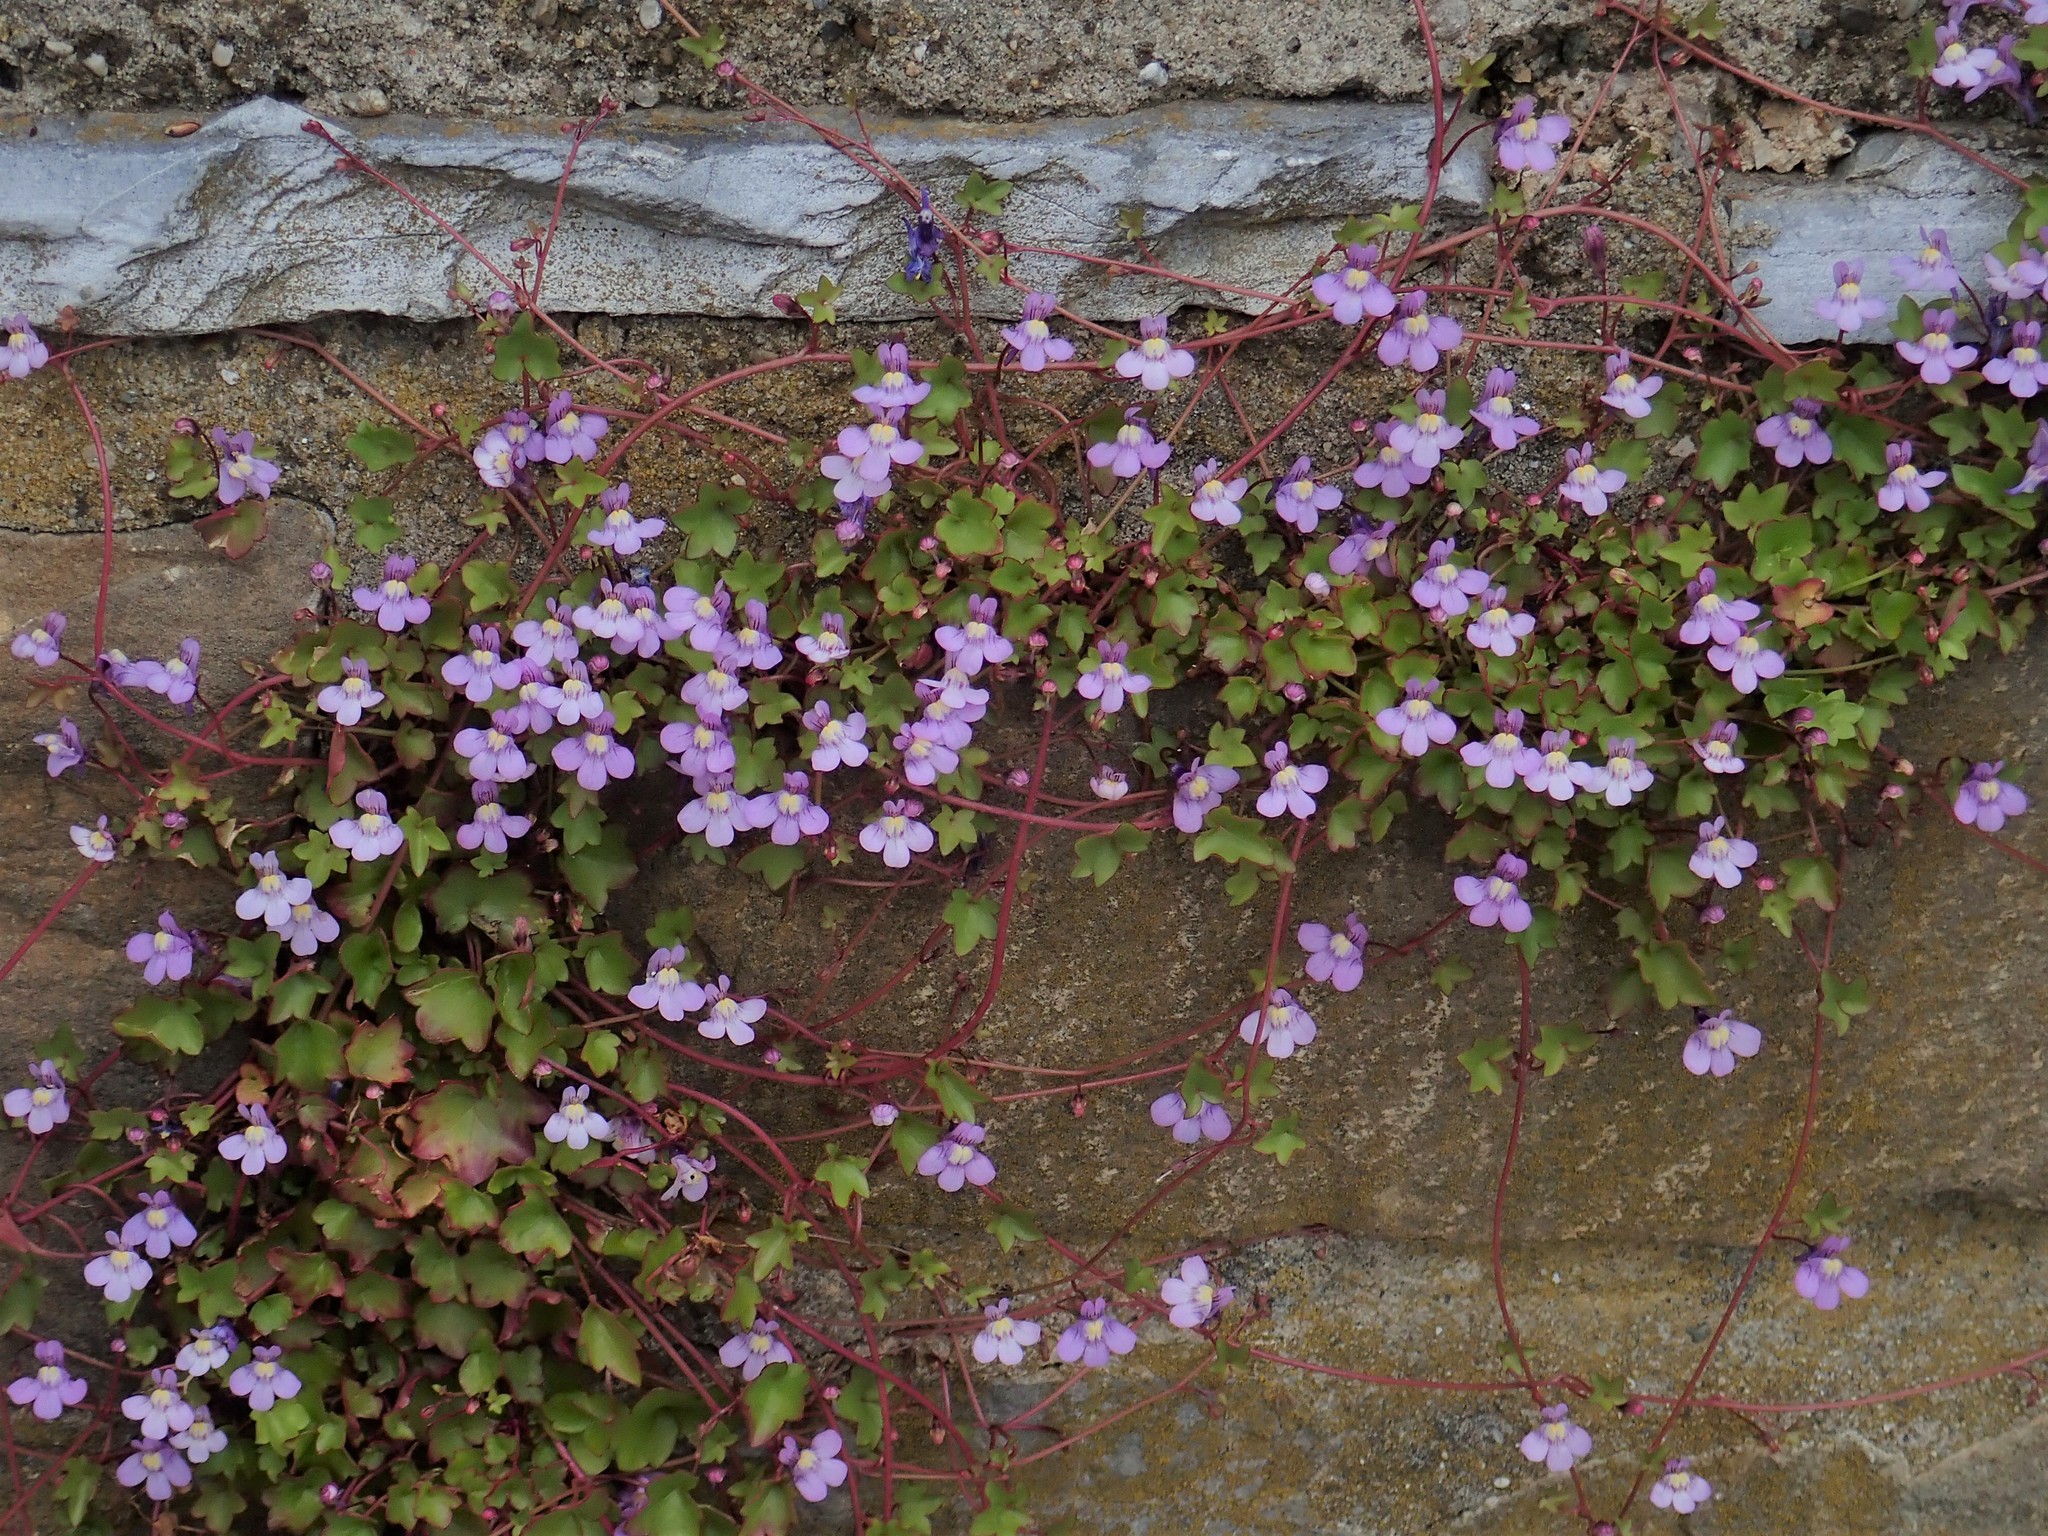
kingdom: Plantae
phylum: Tracheophyta
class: Magnoliopsida
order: Lamiales
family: Plantaginaceae
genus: Cymbalaria
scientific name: Cymbalaria muralis
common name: Ivy-leaved toadflax
